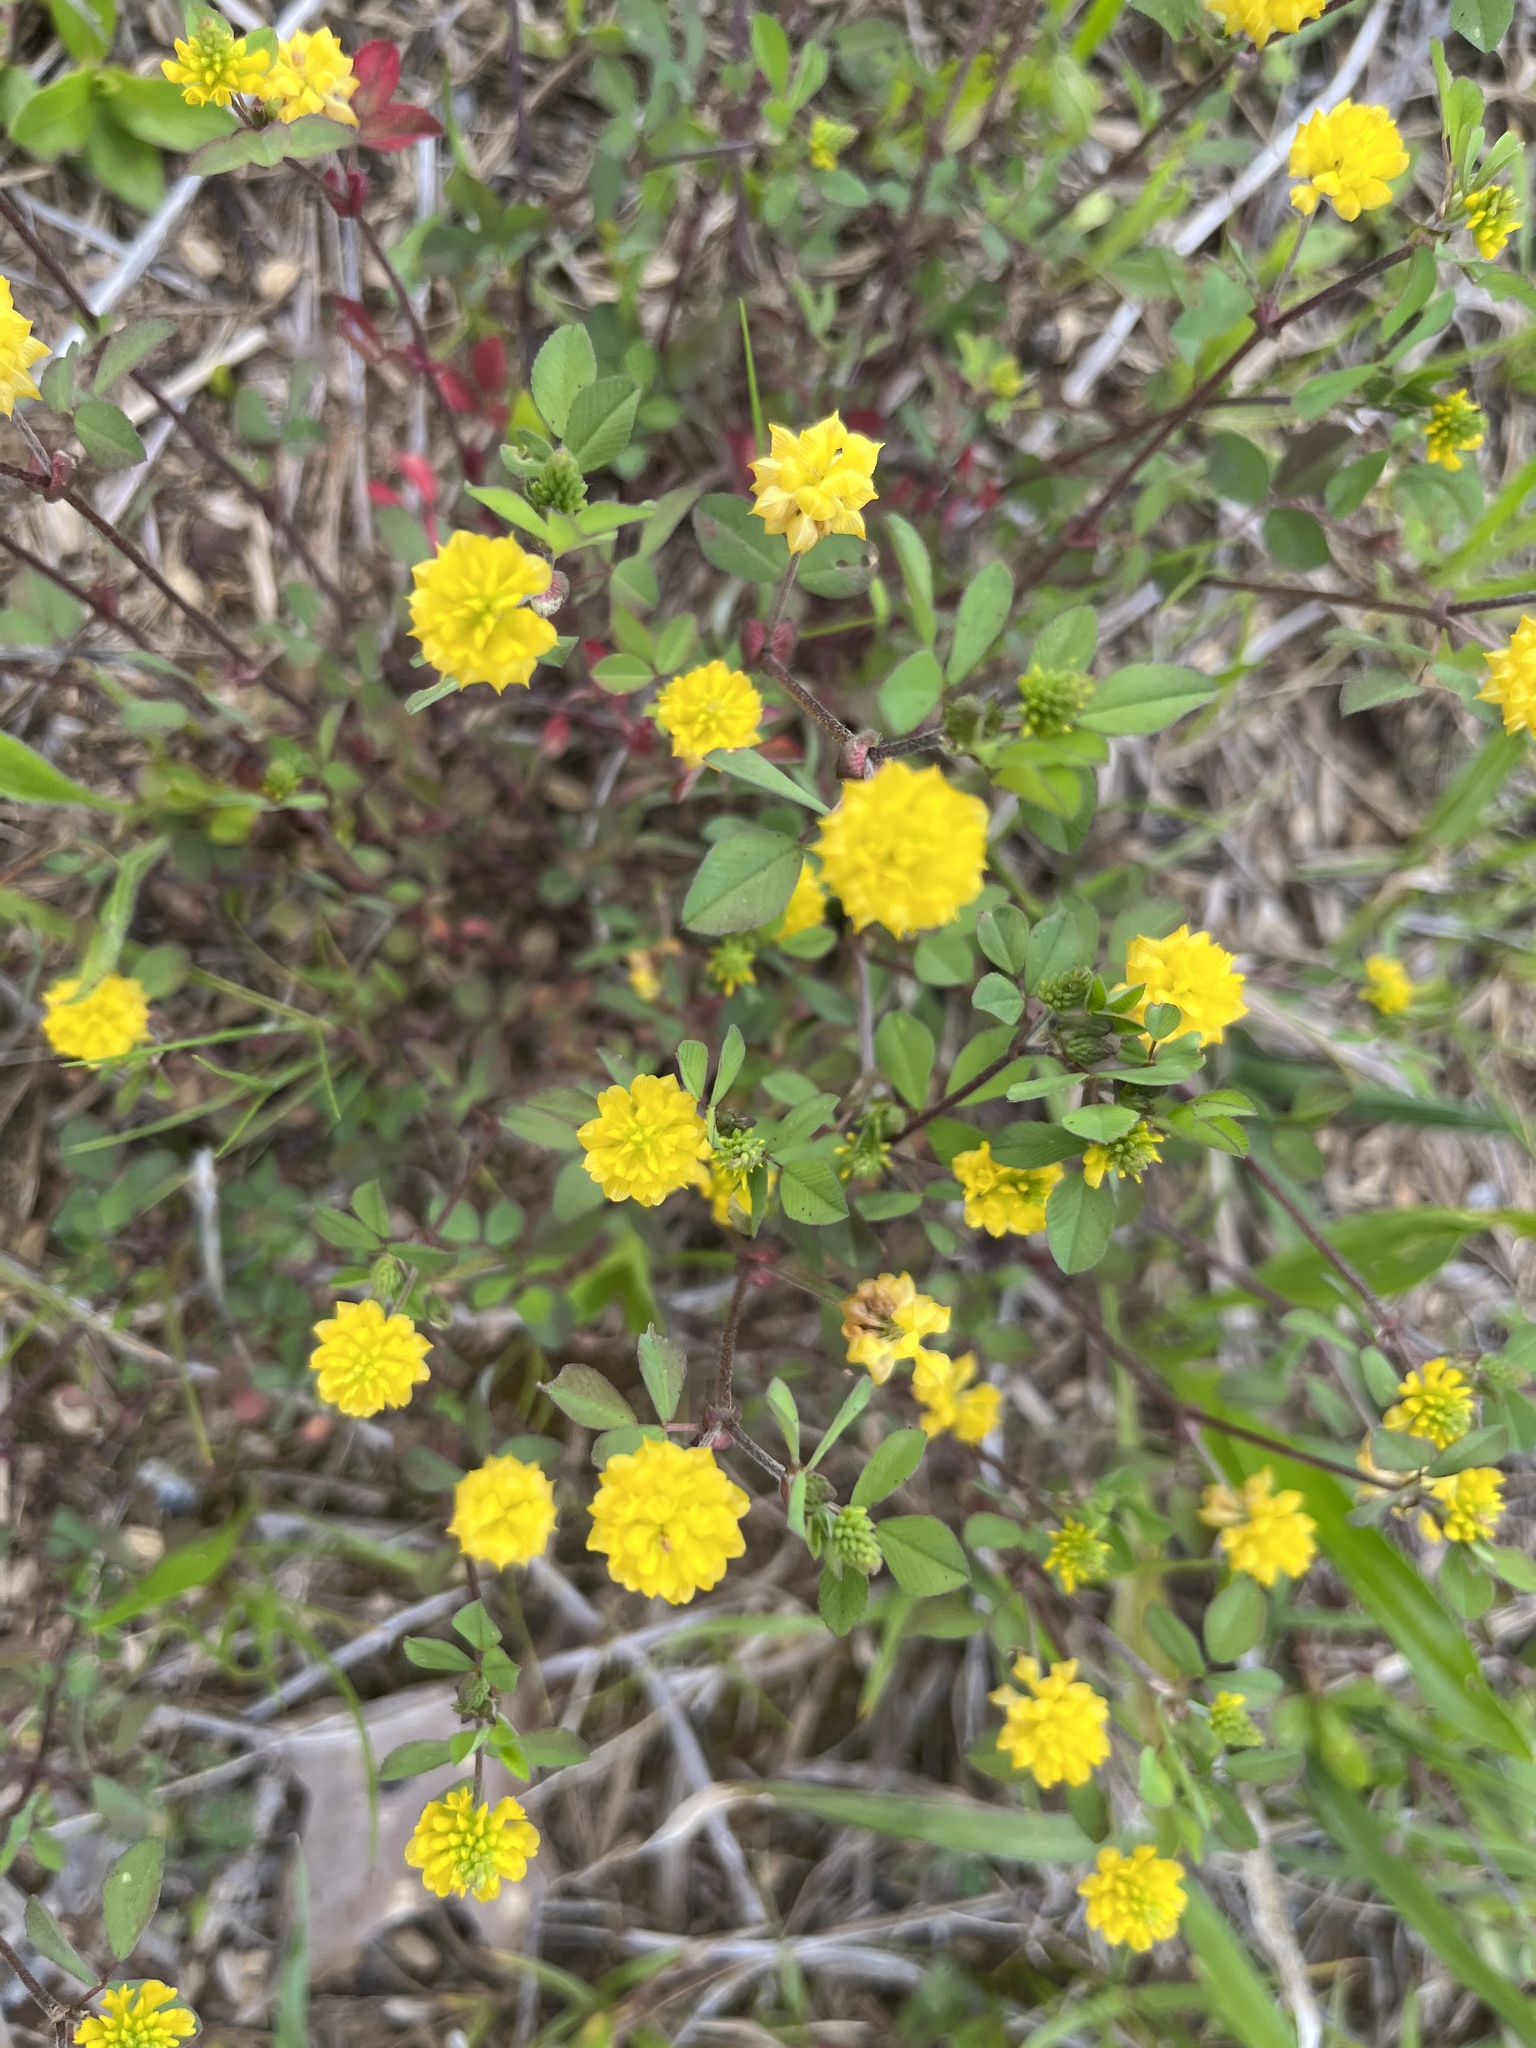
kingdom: Plantae
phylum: Tracheophyta
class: Magnoliopsida
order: Fabales
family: Fabaceae
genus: Trifolium
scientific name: Trifolium campestre
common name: Field clover
